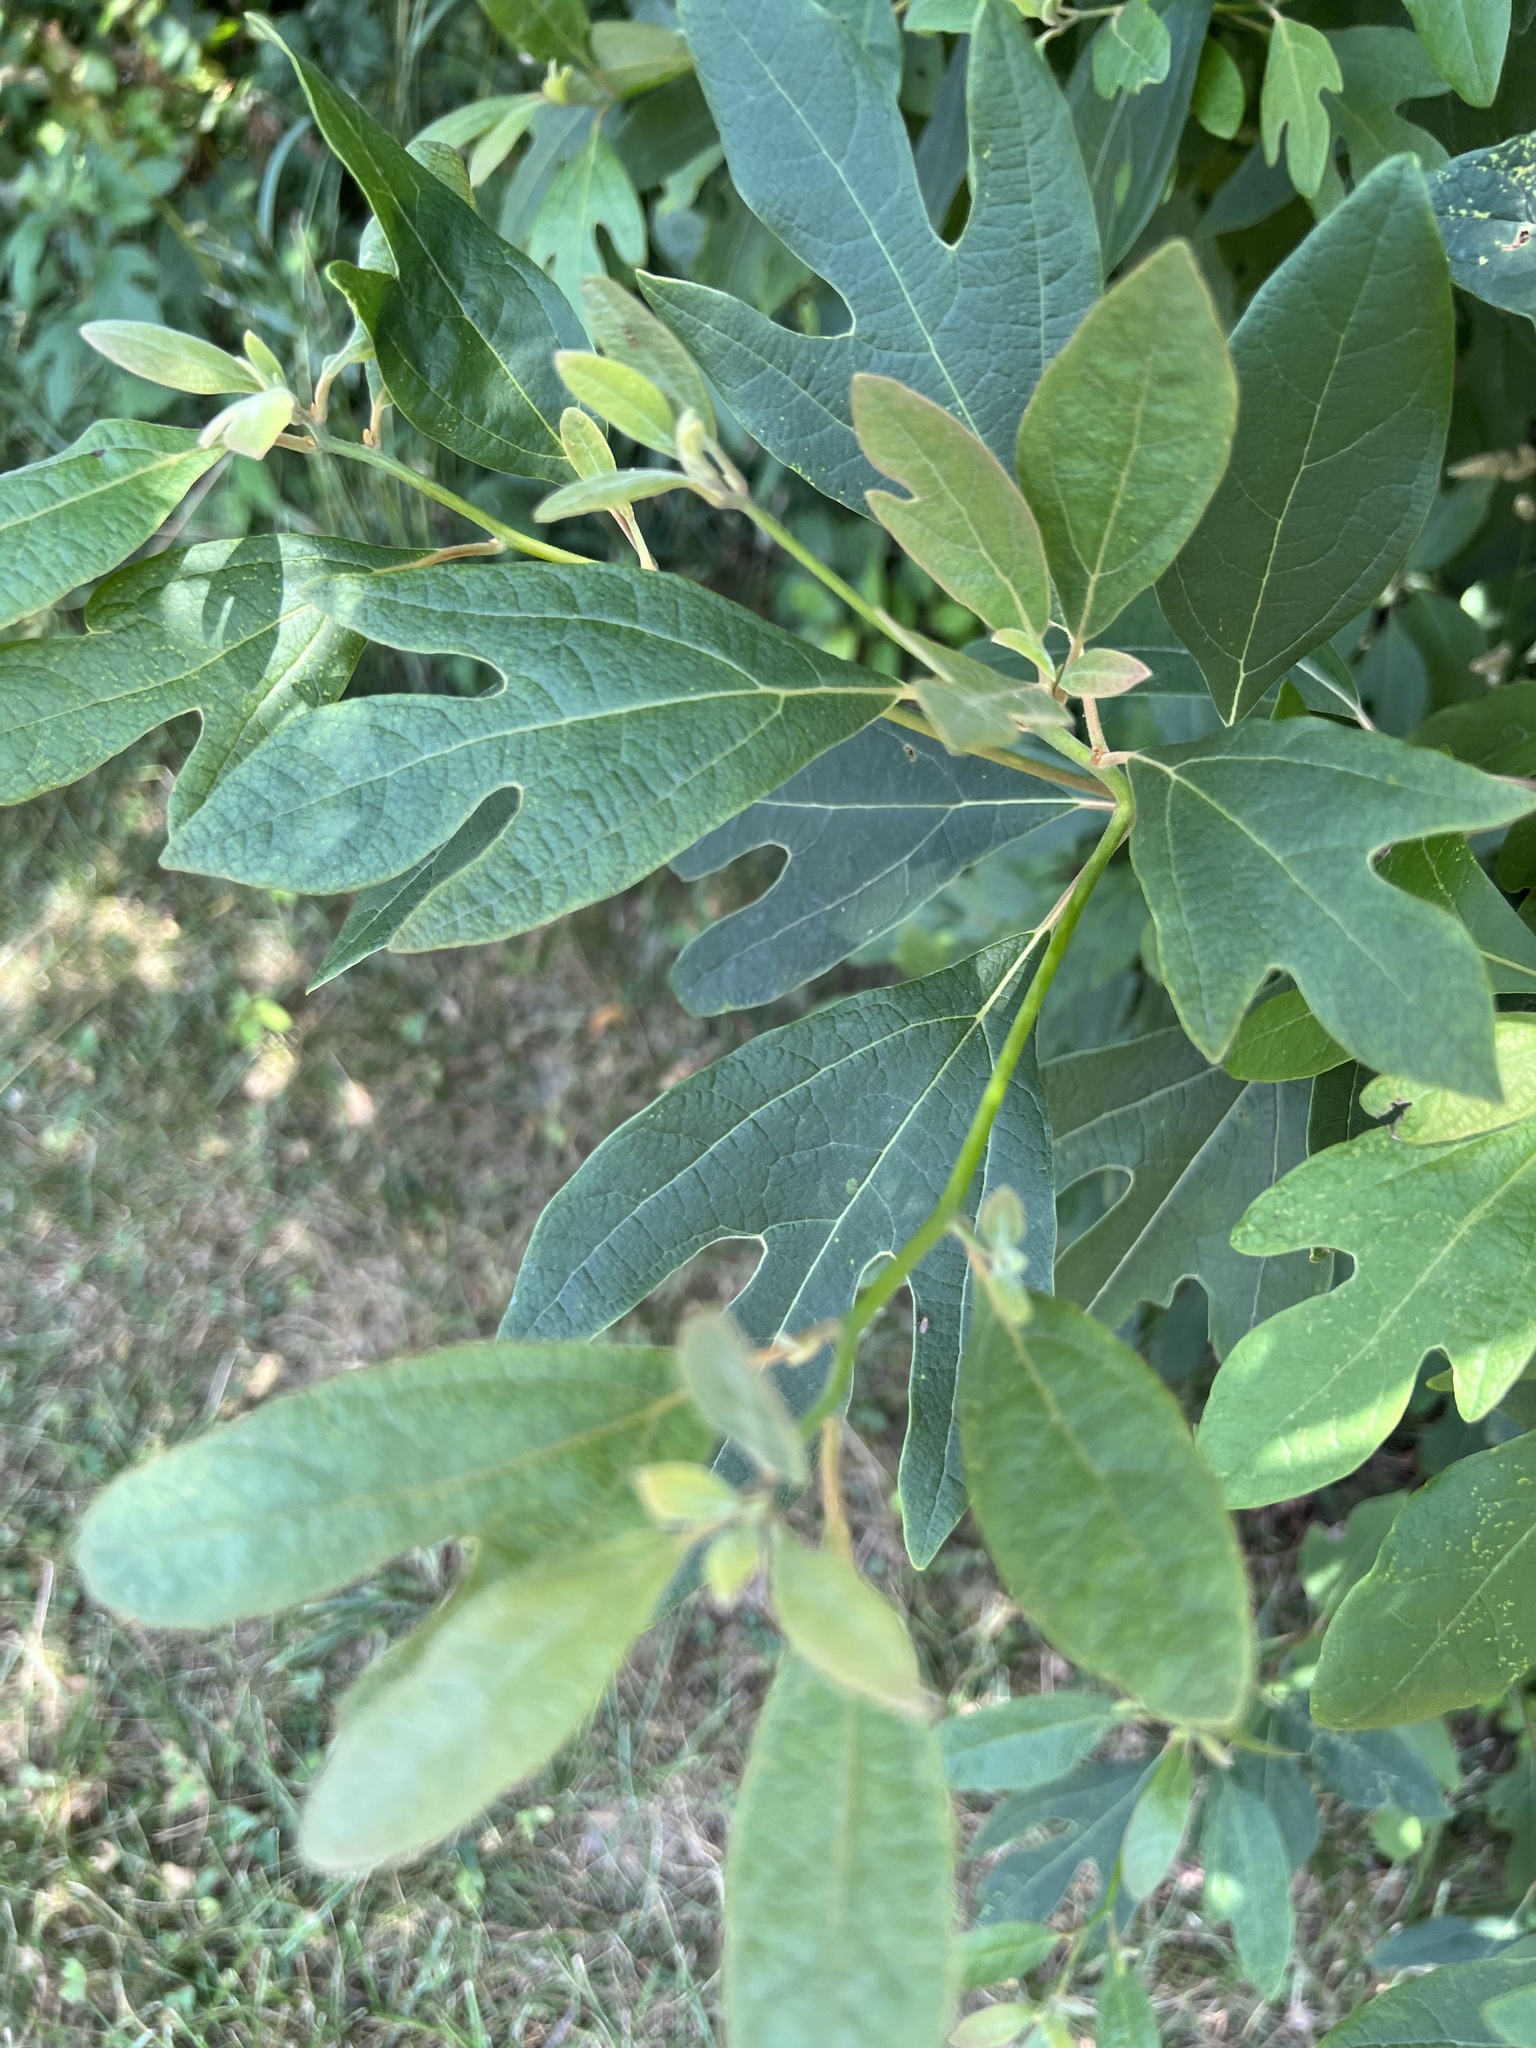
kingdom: Plantae
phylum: Tracheophyta
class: Magnoliopsida
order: Laurales
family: Lauraceae
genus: Sassafras
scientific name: Sassafras albidum
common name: Sassafras
